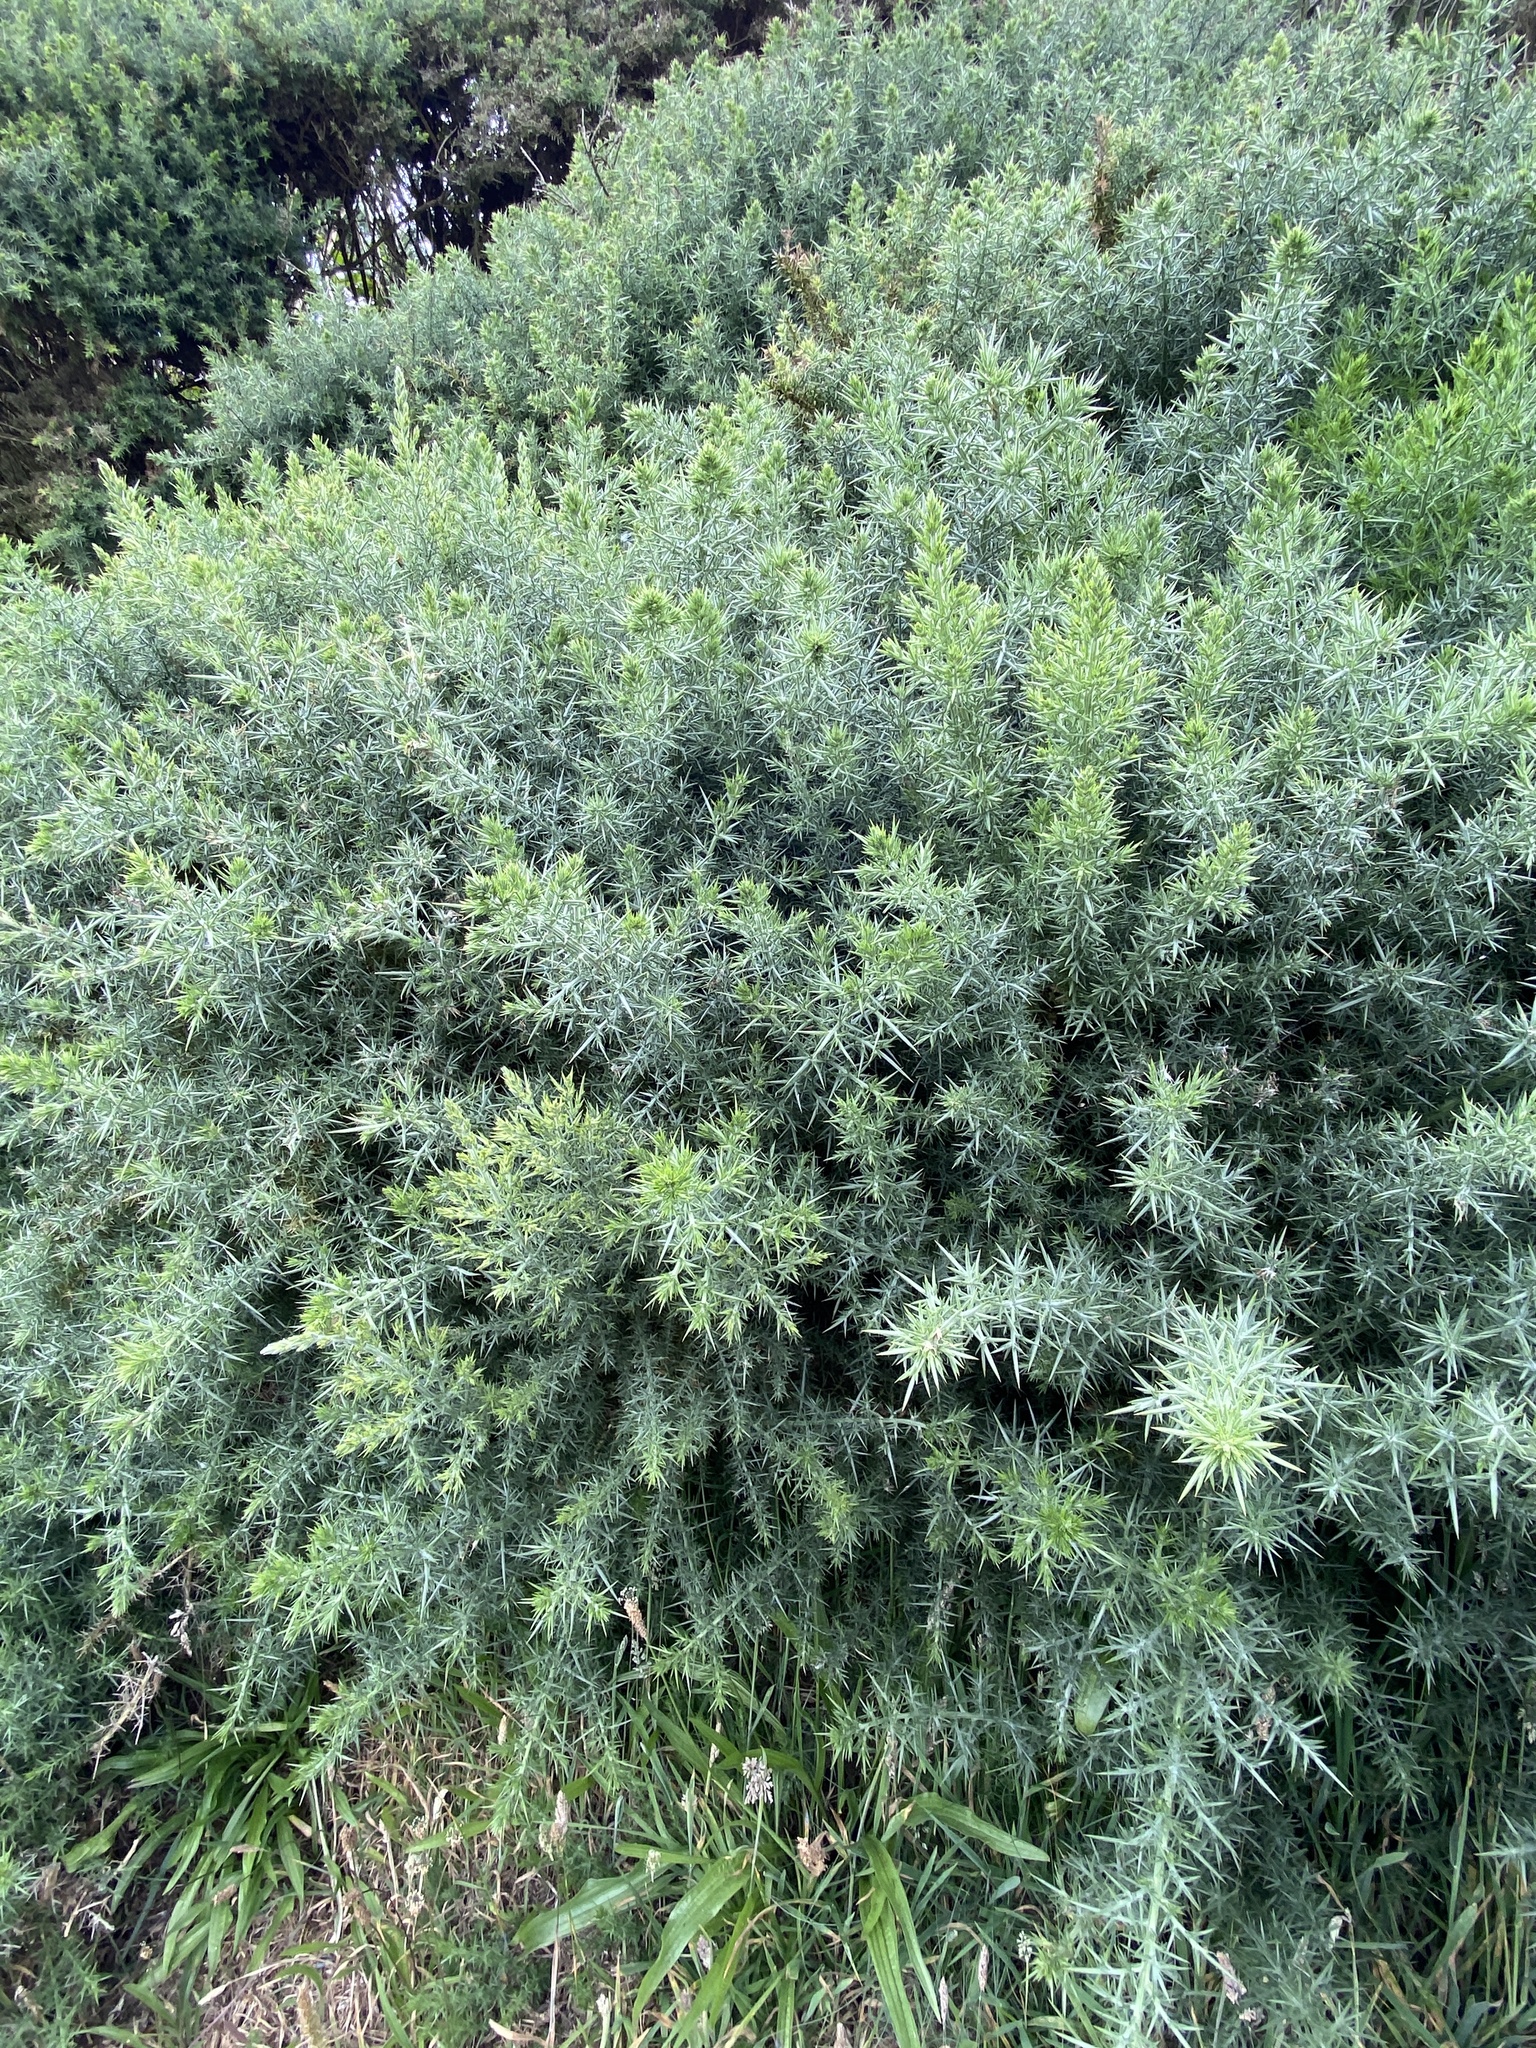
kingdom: Plantae
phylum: Tracheophyta
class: Magnoliopsida
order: Fabales
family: Fabaceae
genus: Ulex
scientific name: Ulex europaeus
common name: Common gorse
